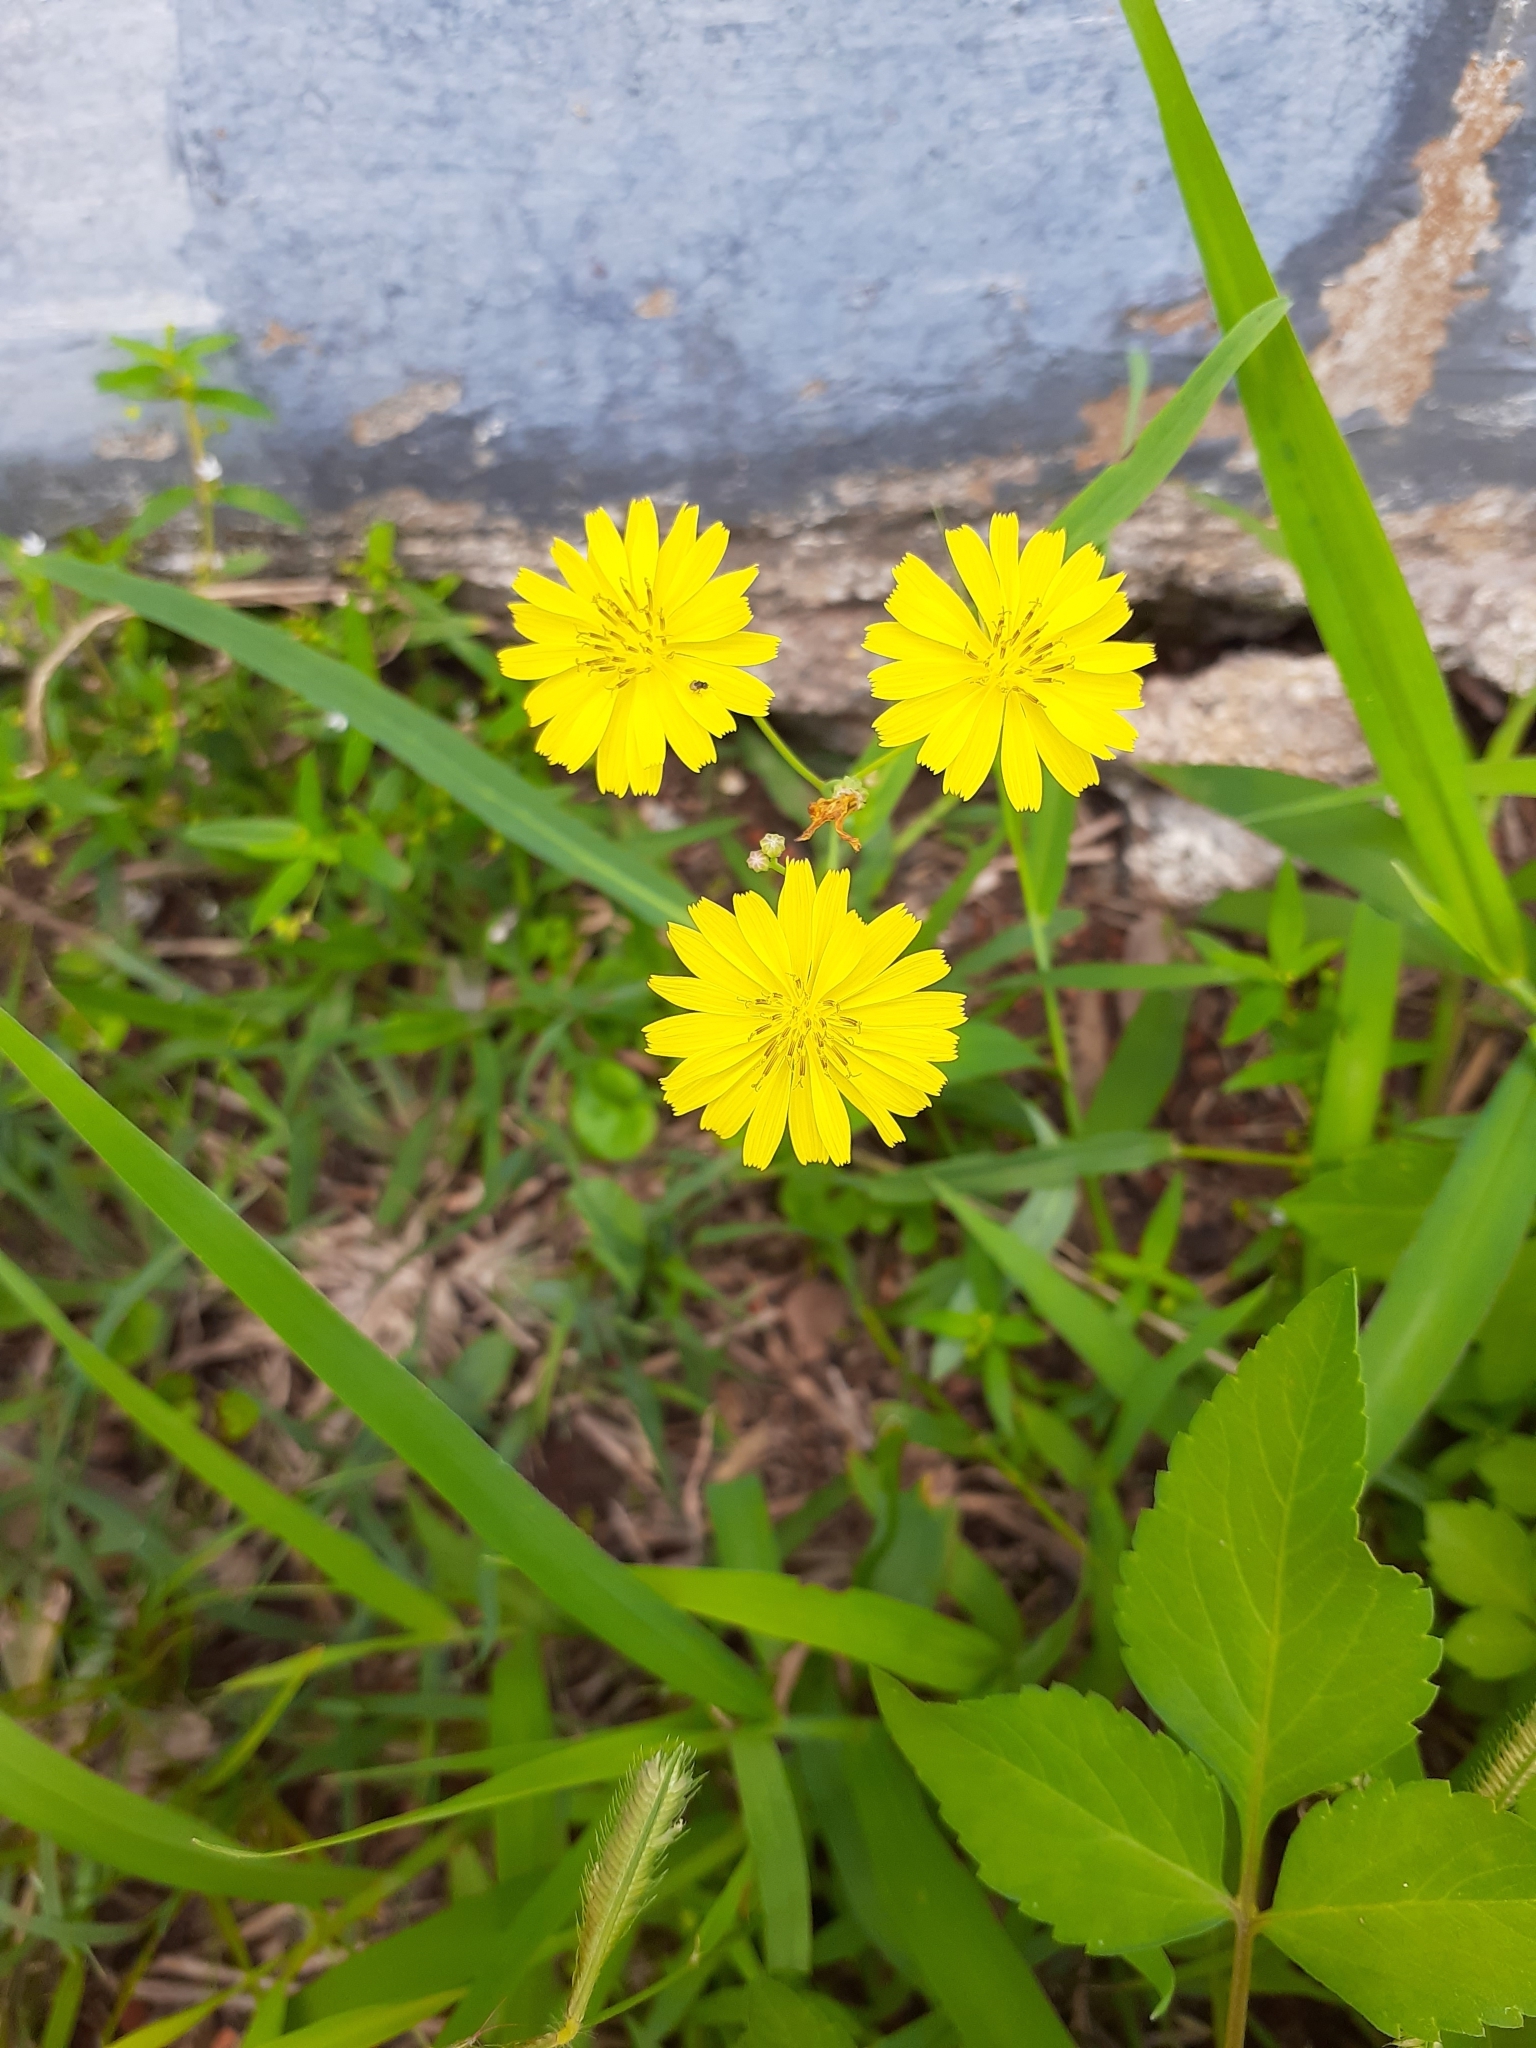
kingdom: Plantae
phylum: Tracheophyta
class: Magnoliopsida
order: Asterales
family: Asteraceae
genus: Ixeris
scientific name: Ixeris chinensis
